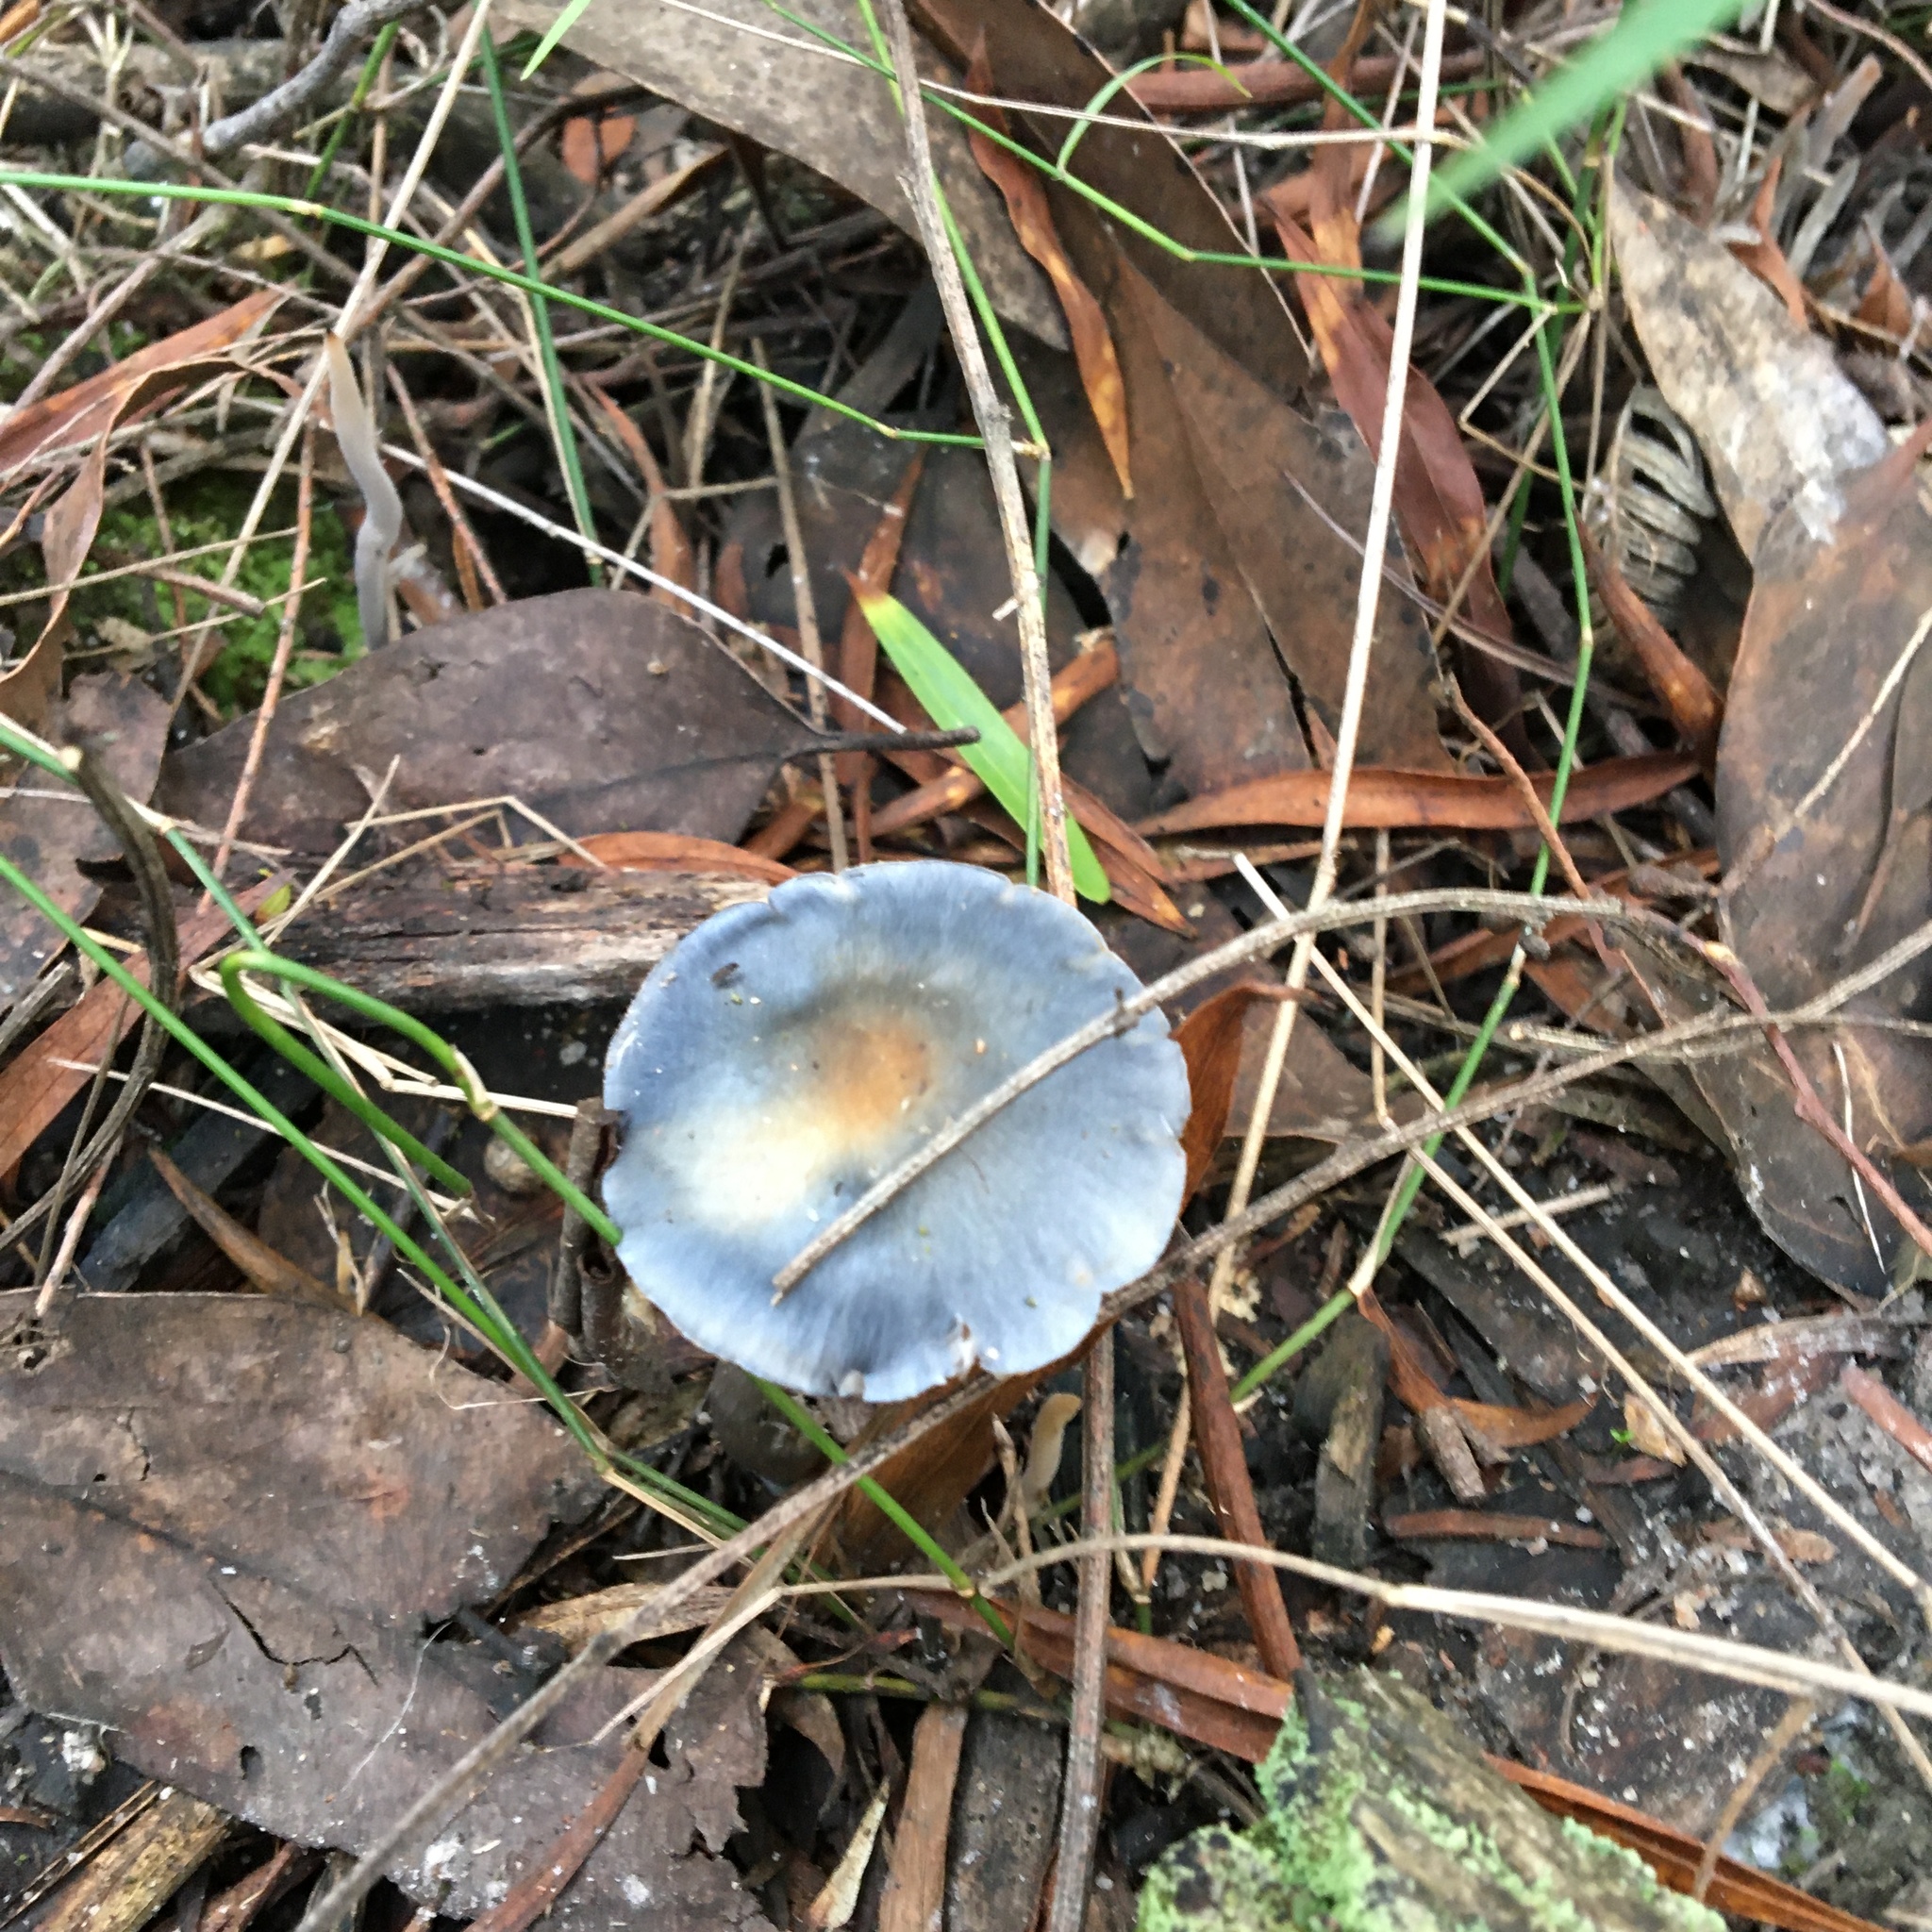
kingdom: Fungi
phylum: Basidiomycota
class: Agaricomycetes
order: Agaricales
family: Cortinariaceae
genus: Cortinarius
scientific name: Cortinarius rotundisporus
